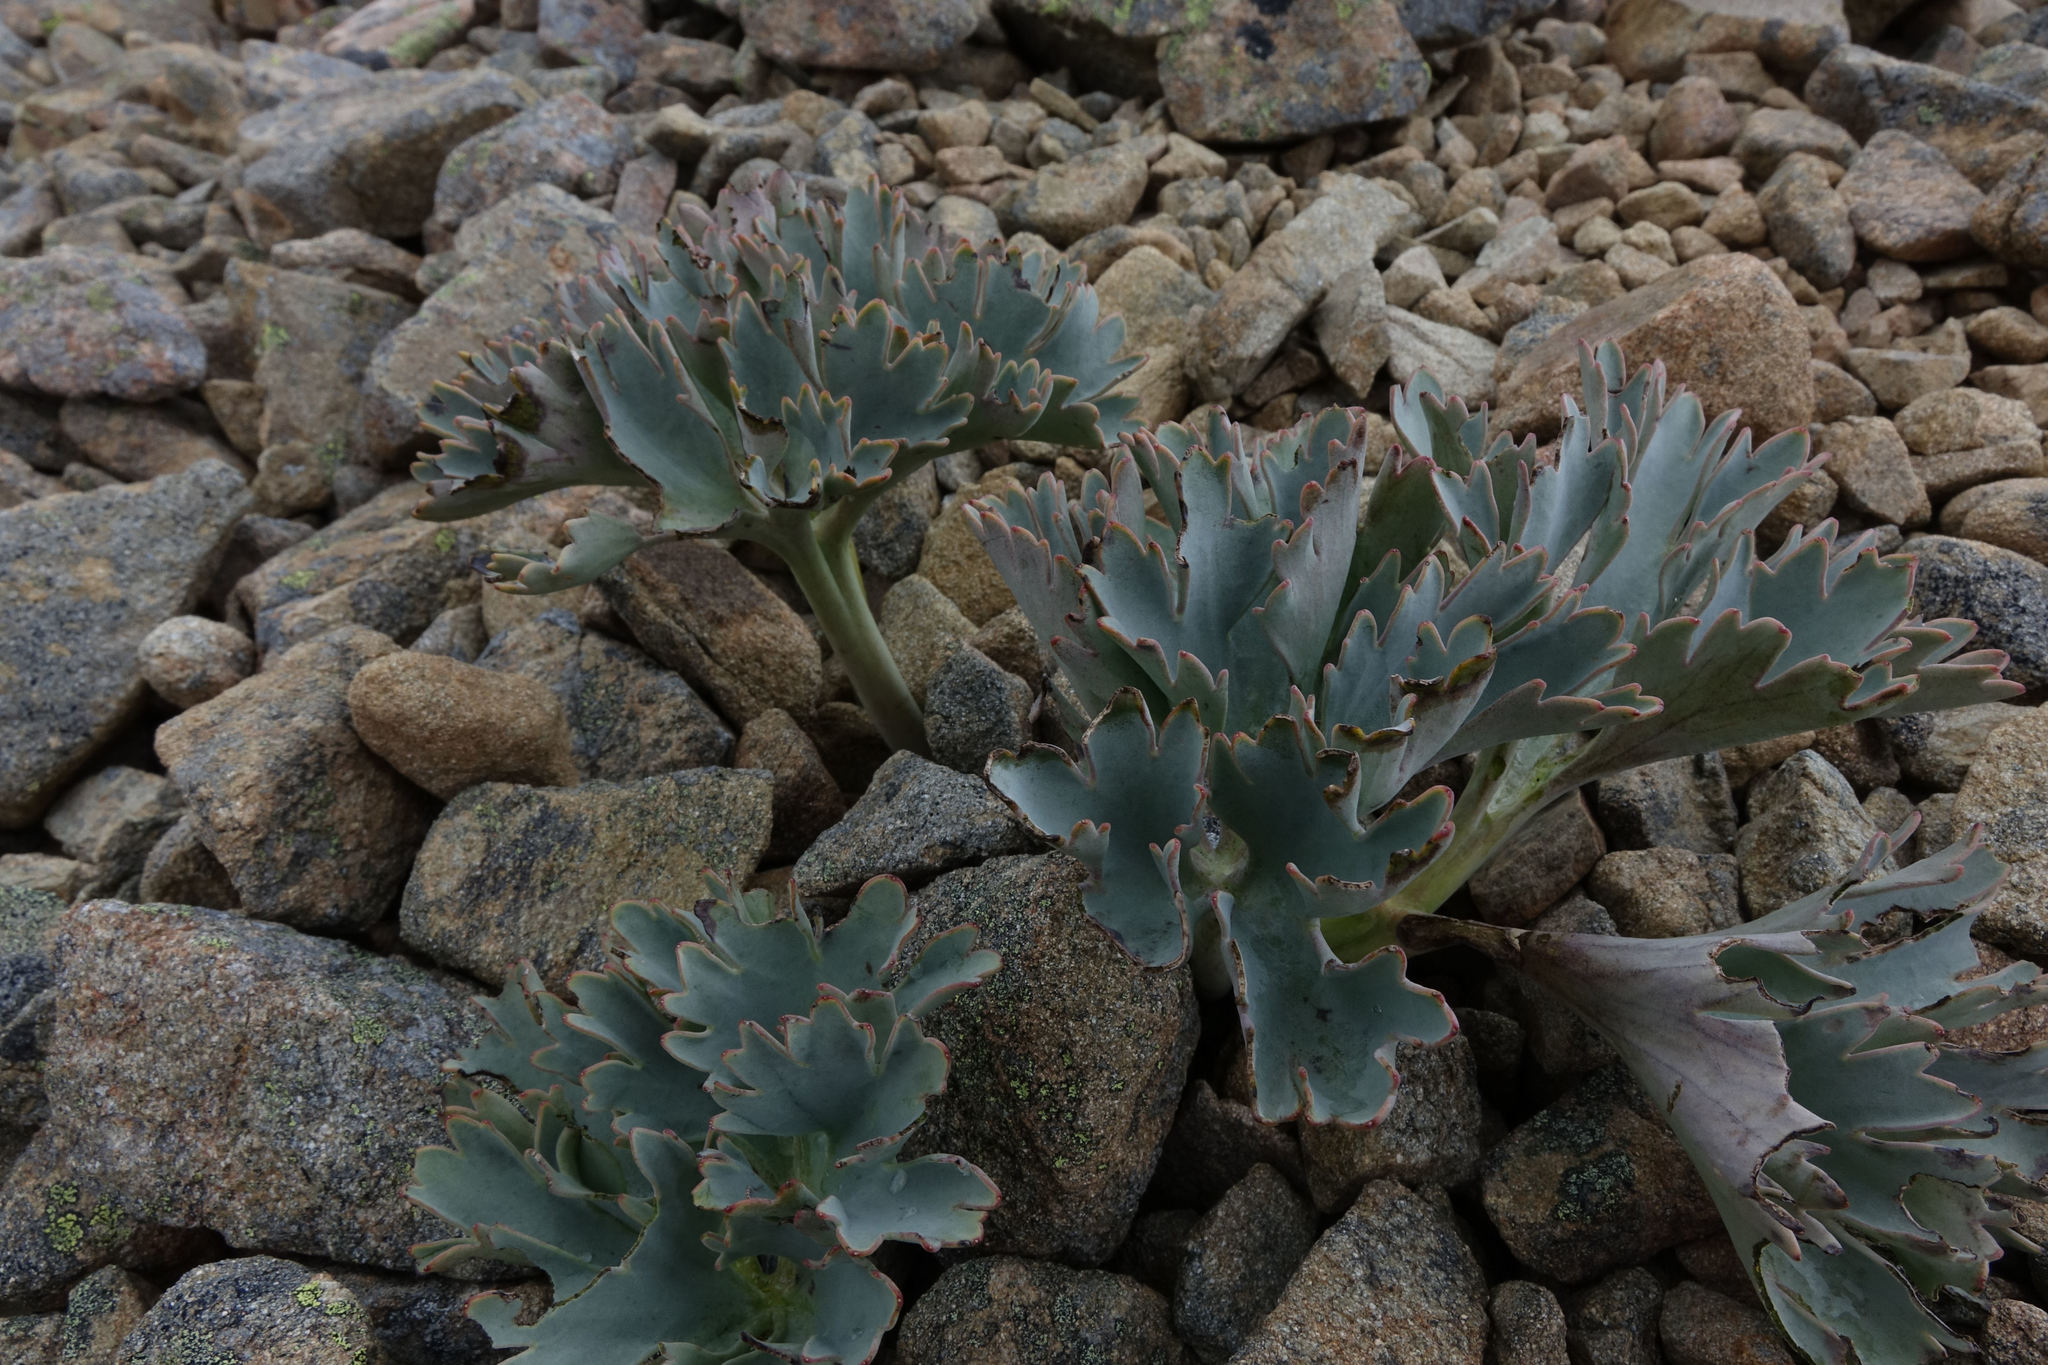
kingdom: Plantae
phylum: Tracheophyta
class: Magnoliopsida
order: Ranunculales
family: Ranunculaceae
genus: Ranunculus
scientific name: Ranunculus acraeus
